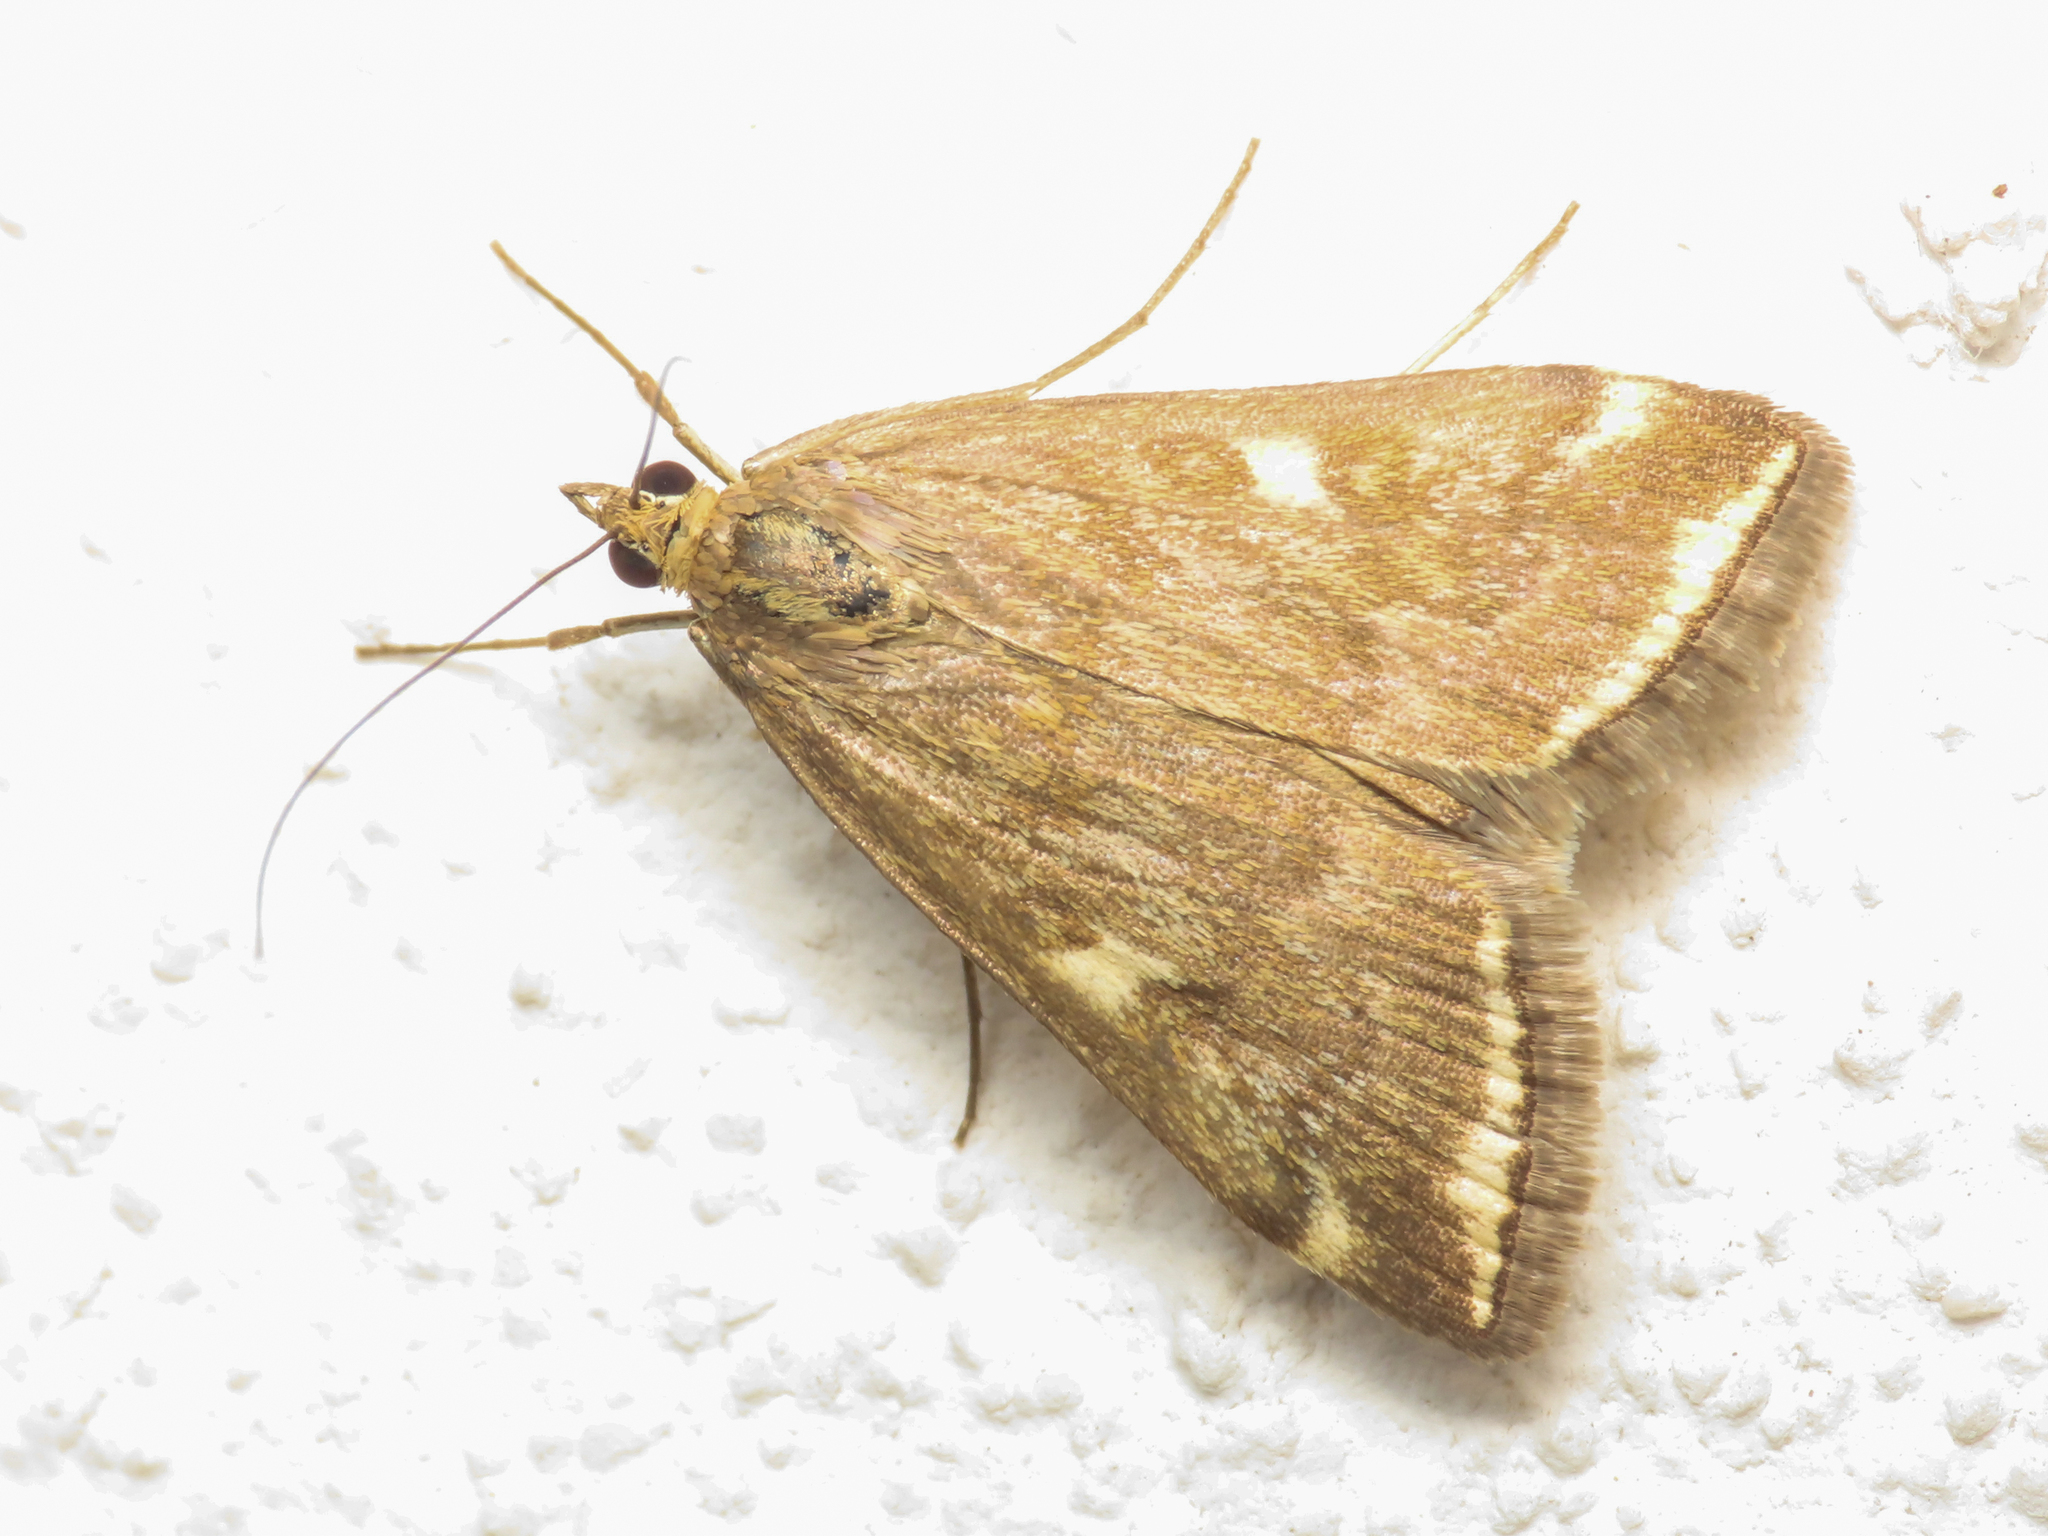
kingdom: Animalia
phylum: Arthropoda
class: Insecta
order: Lepidoptera
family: Crambidae
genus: Loxostege
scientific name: Loxostege sticticalis
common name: Crambid moth
